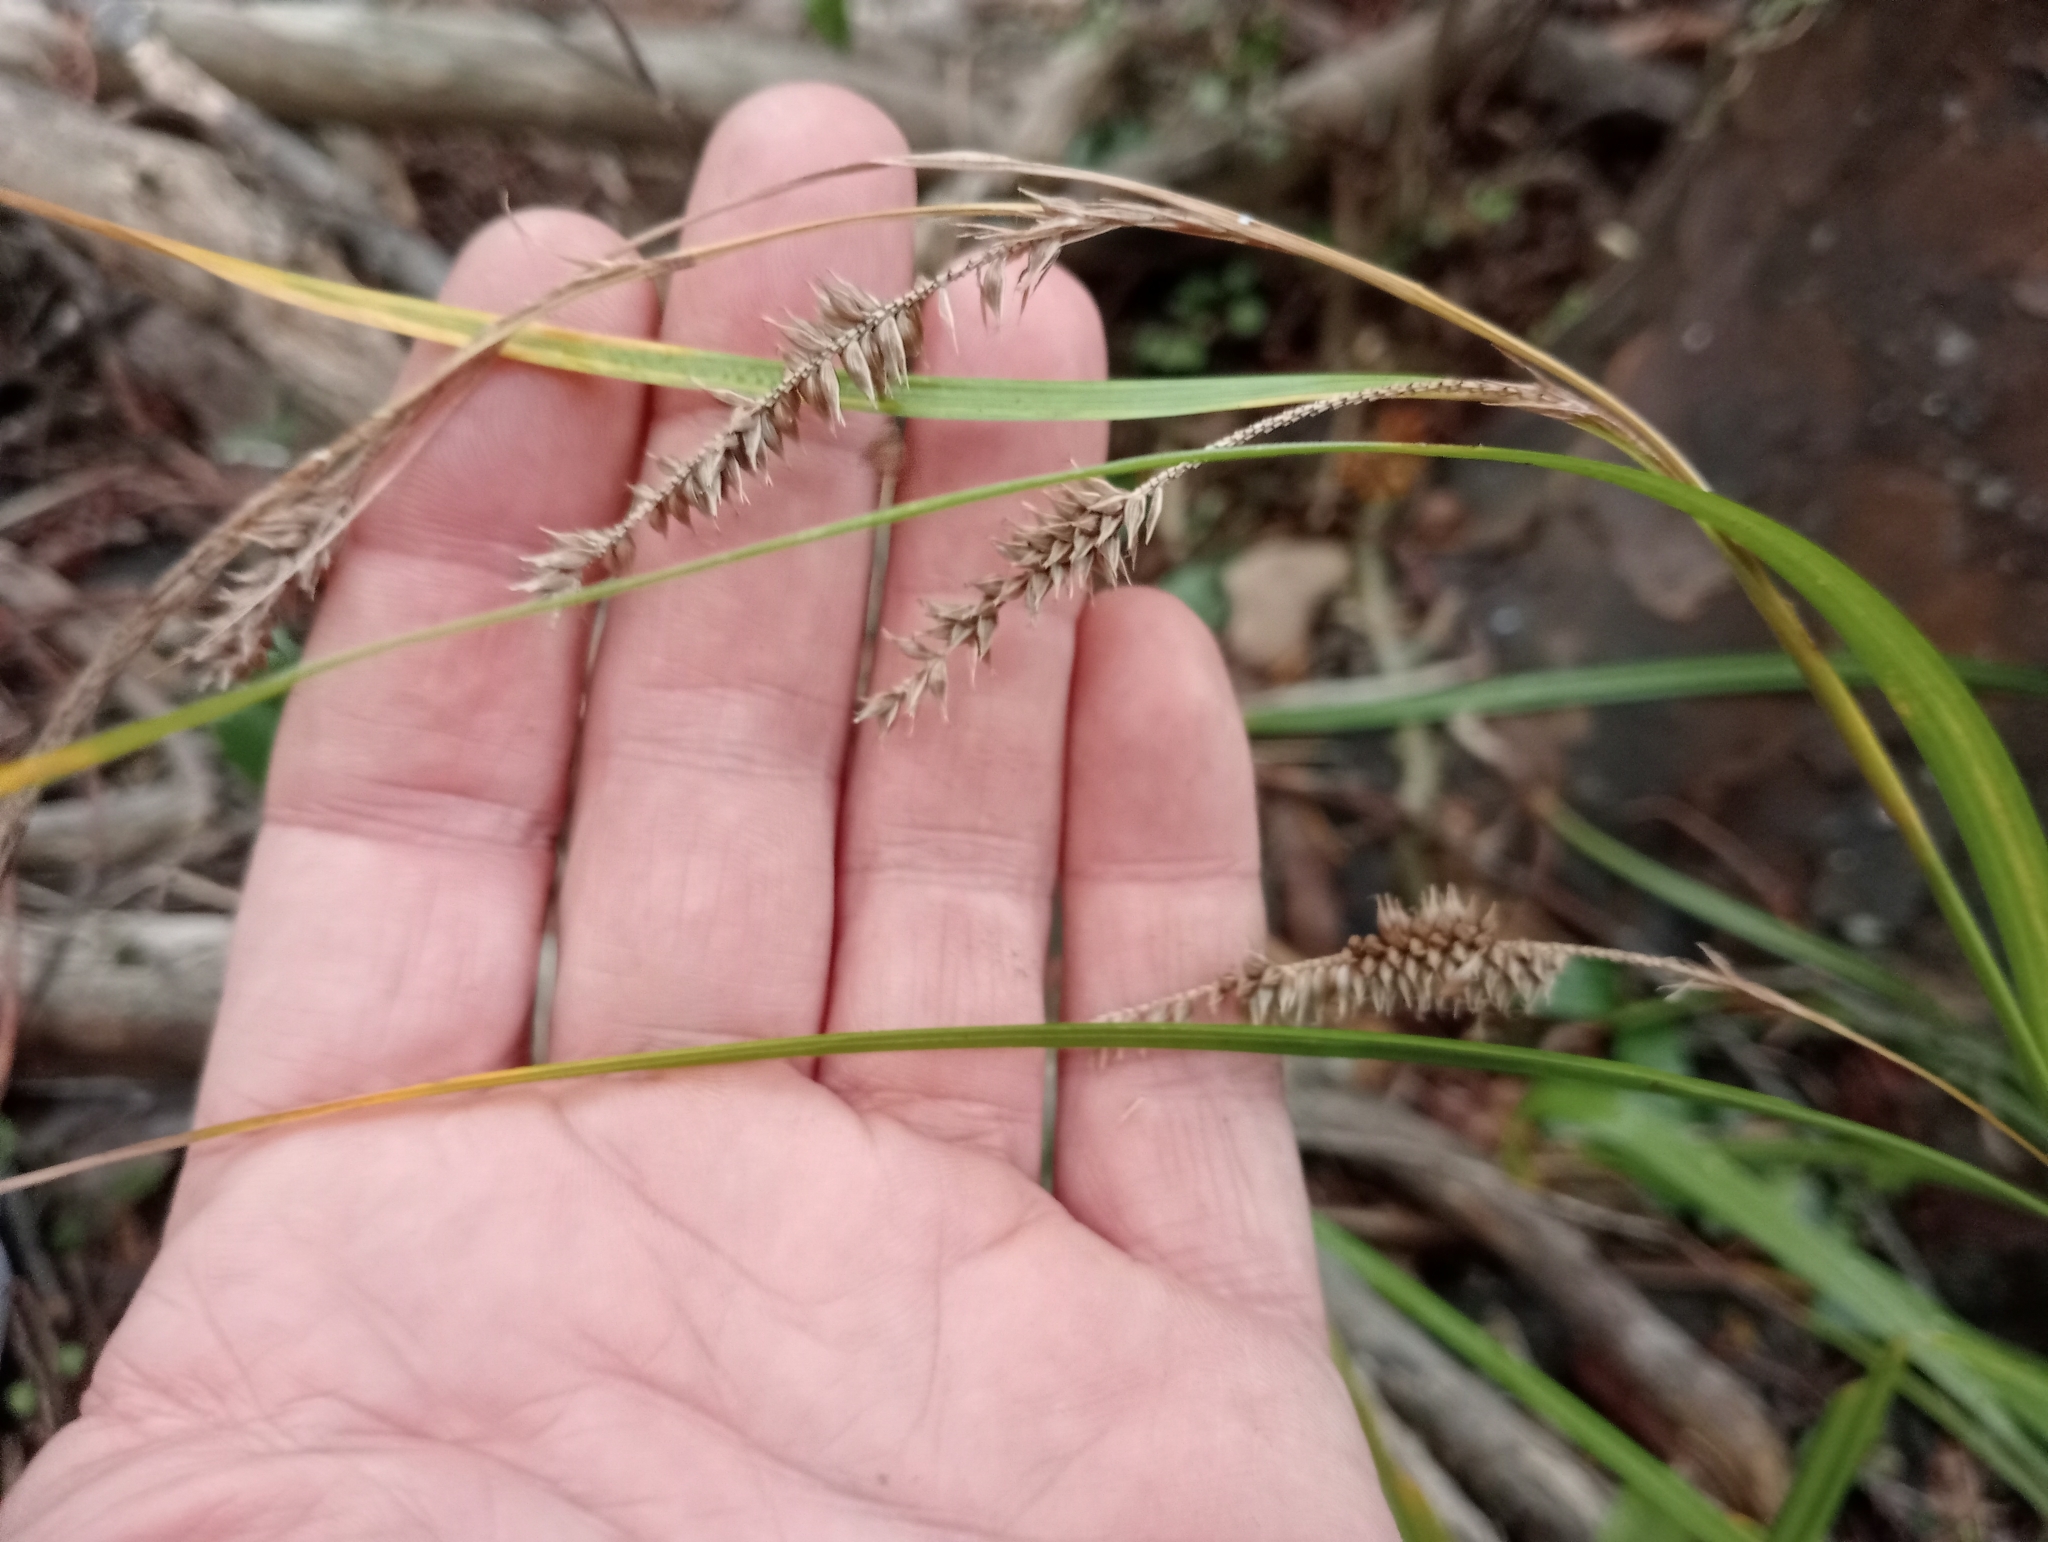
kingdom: Plantae
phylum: Tracheophyta
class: Liliopsida
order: Poales
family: Cyperaceae
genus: Carex
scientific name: Carex forsteri
